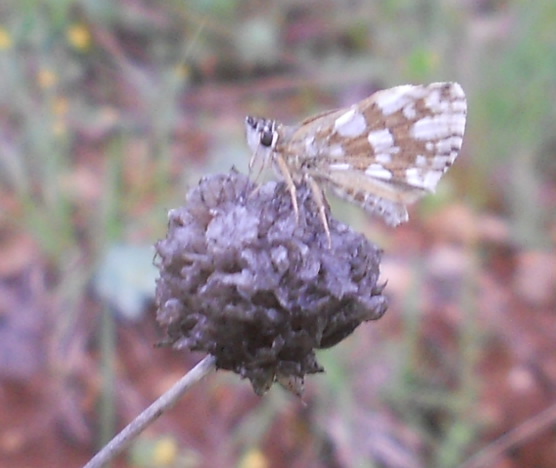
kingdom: Animalia
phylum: Arthropoda
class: Insecta
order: Lepidoptera
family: Hesperiidae
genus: Spialia
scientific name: Spialia sertorius
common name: Red underwing skipper
